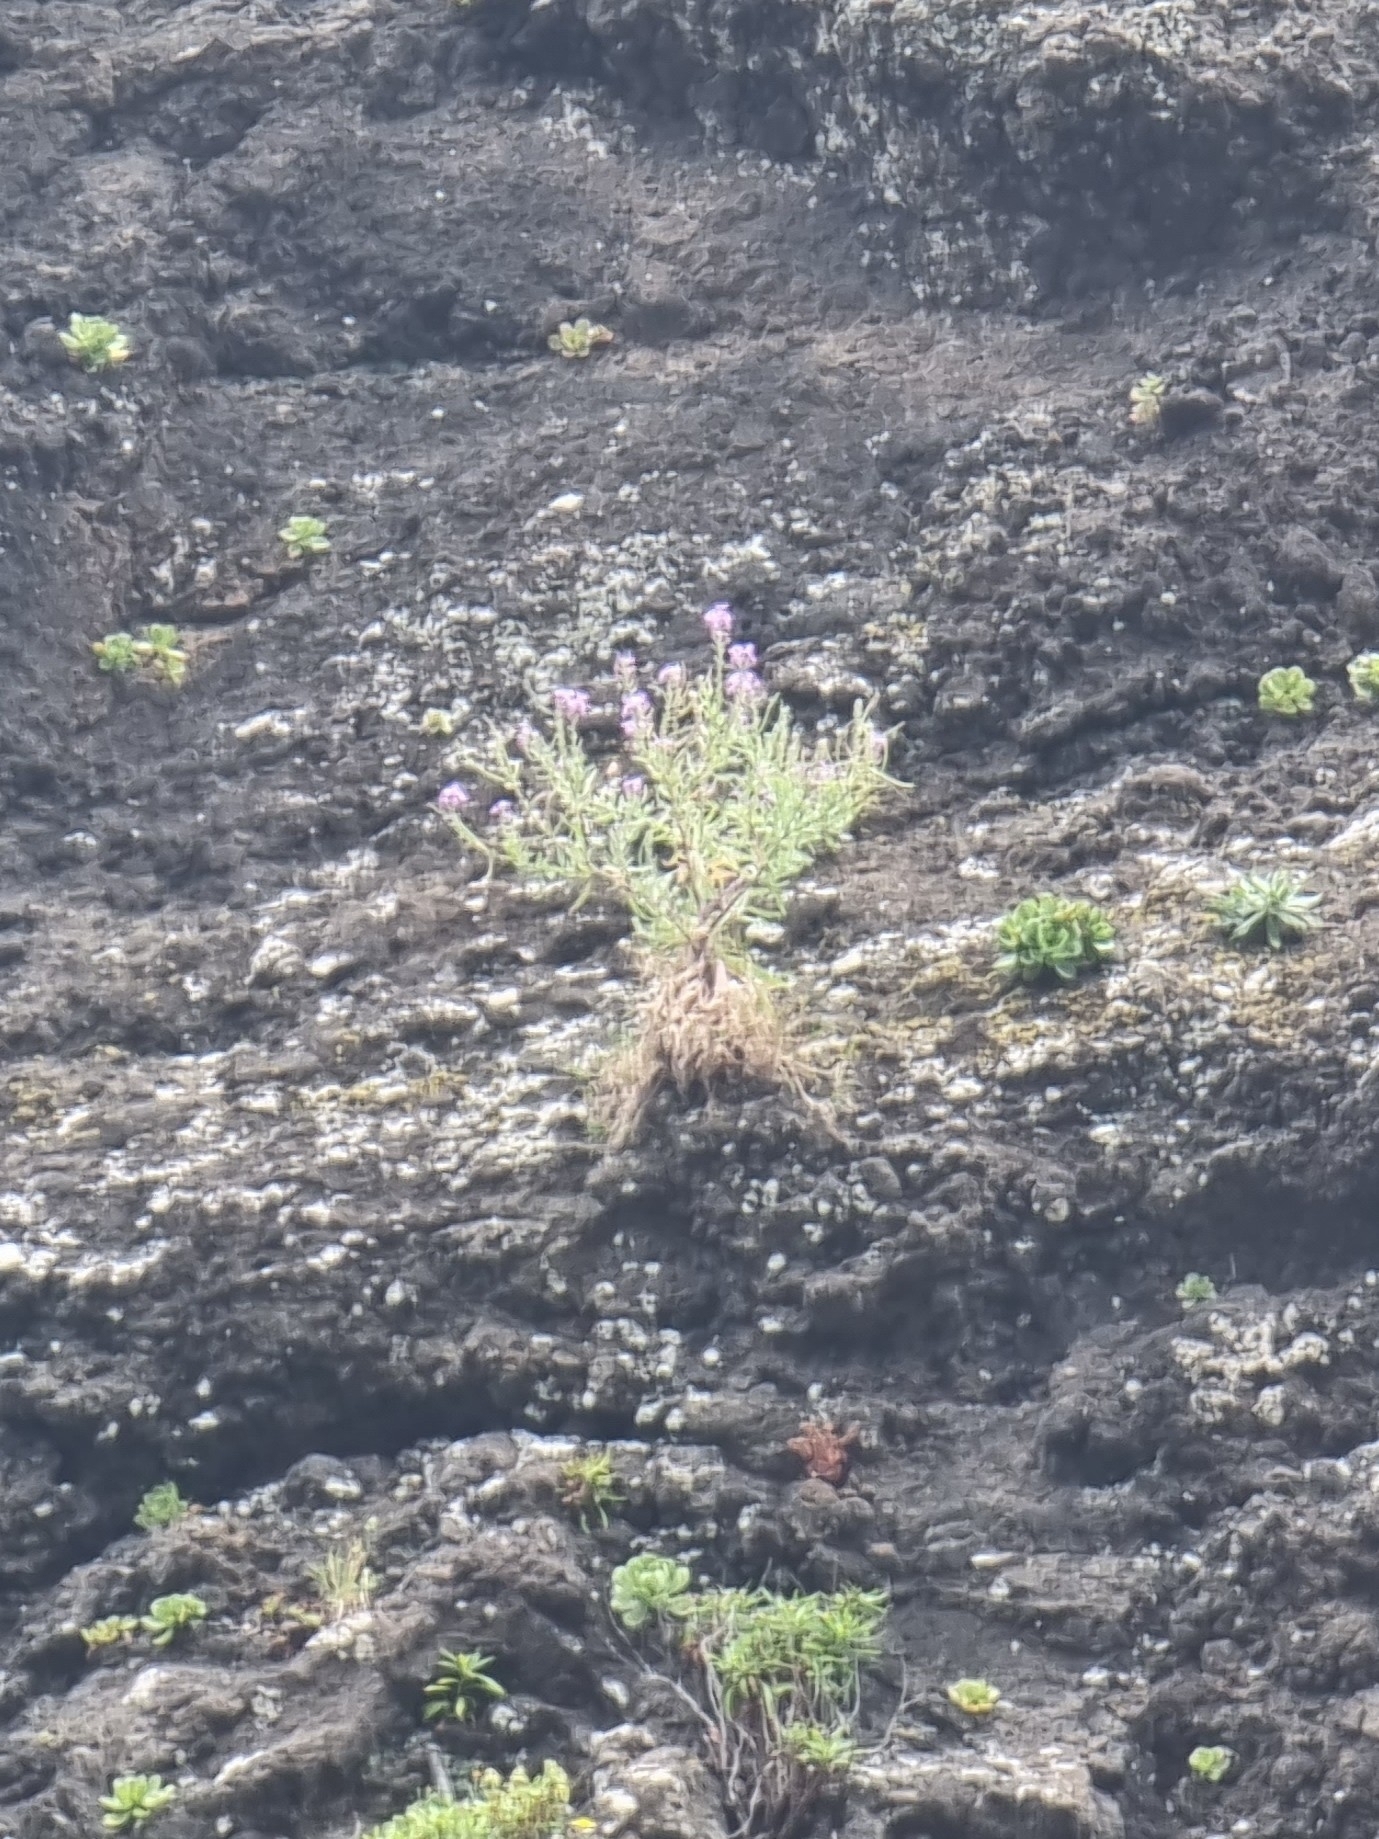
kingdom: Plantae
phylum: Tracheophyta
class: Magnoliopsida
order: Brassicales
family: Brassicaceae
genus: Matthiola
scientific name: Matthiola maderensis
